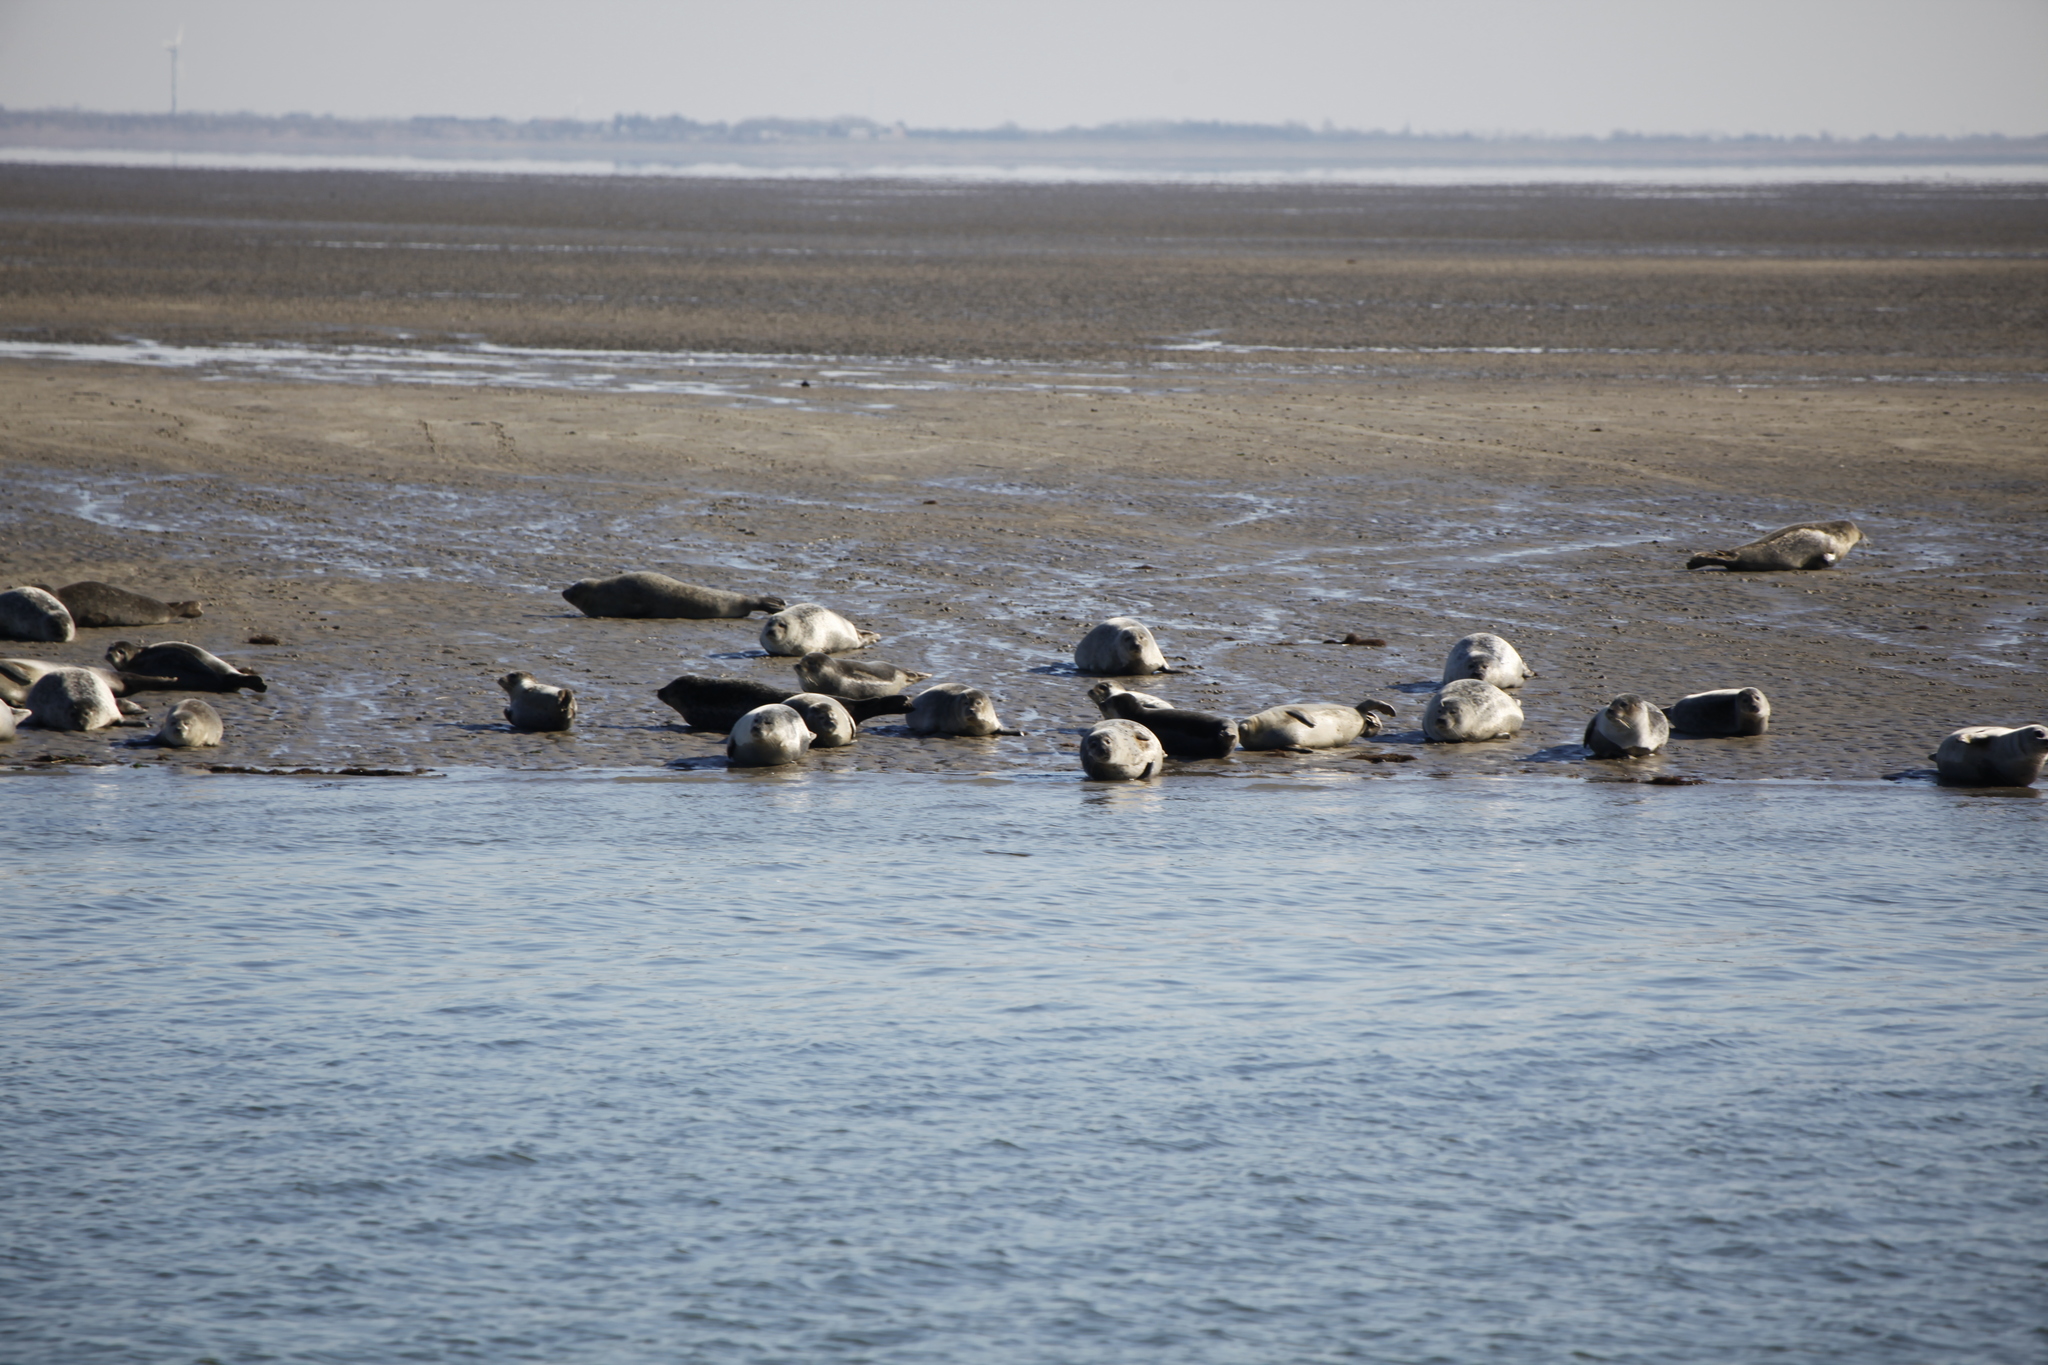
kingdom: Animalia
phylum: Chordata
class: Mammalia
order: Carnivora
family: Phocidae
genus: Phoca
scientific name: Phoca vitulina
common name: Harbor seal
